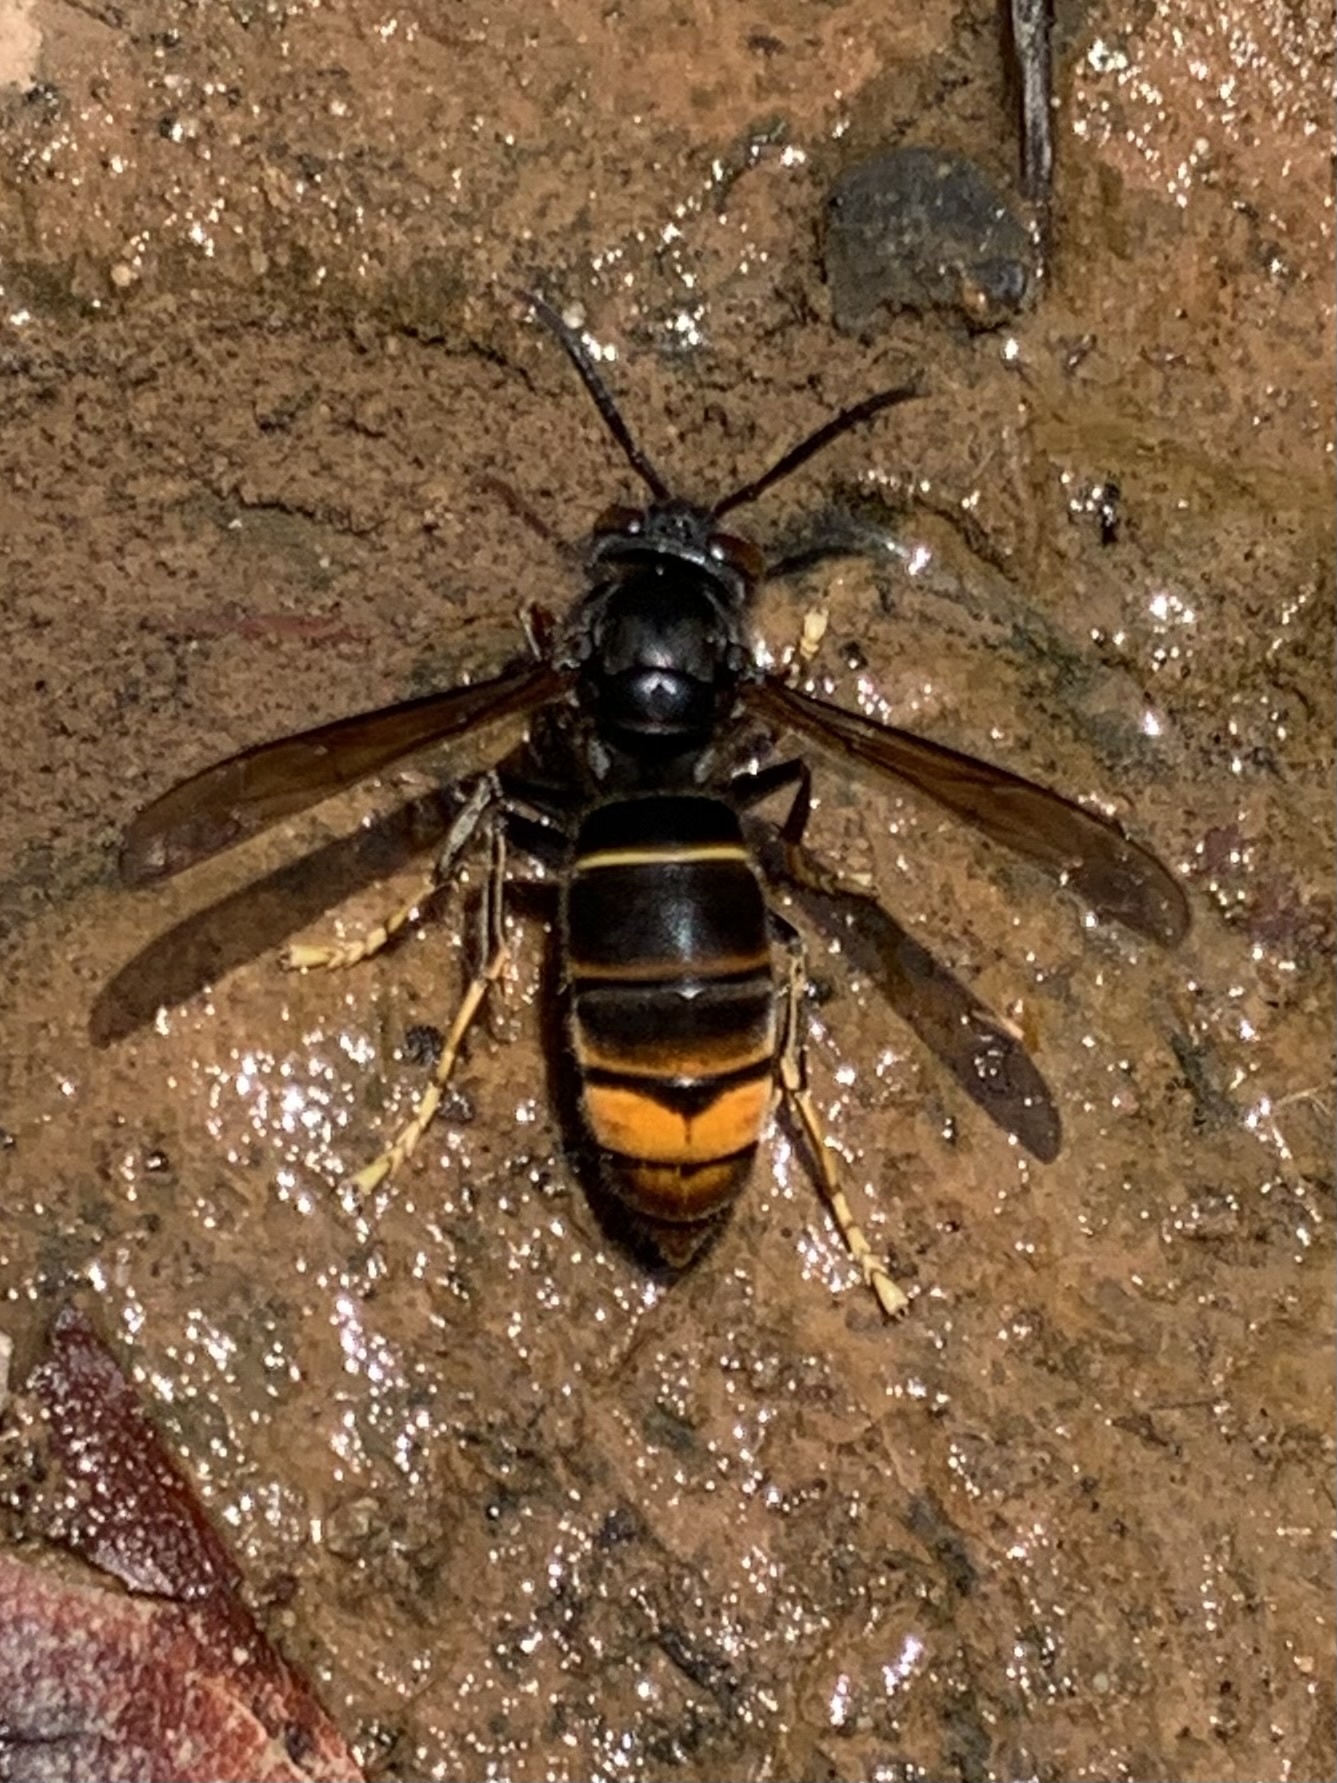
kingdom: Animalia
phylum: Arthropoda
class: Insecta
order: Hymenoptera
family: Vespidae
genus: Vespa
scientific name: Vespa velutina
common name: Asian hornet
